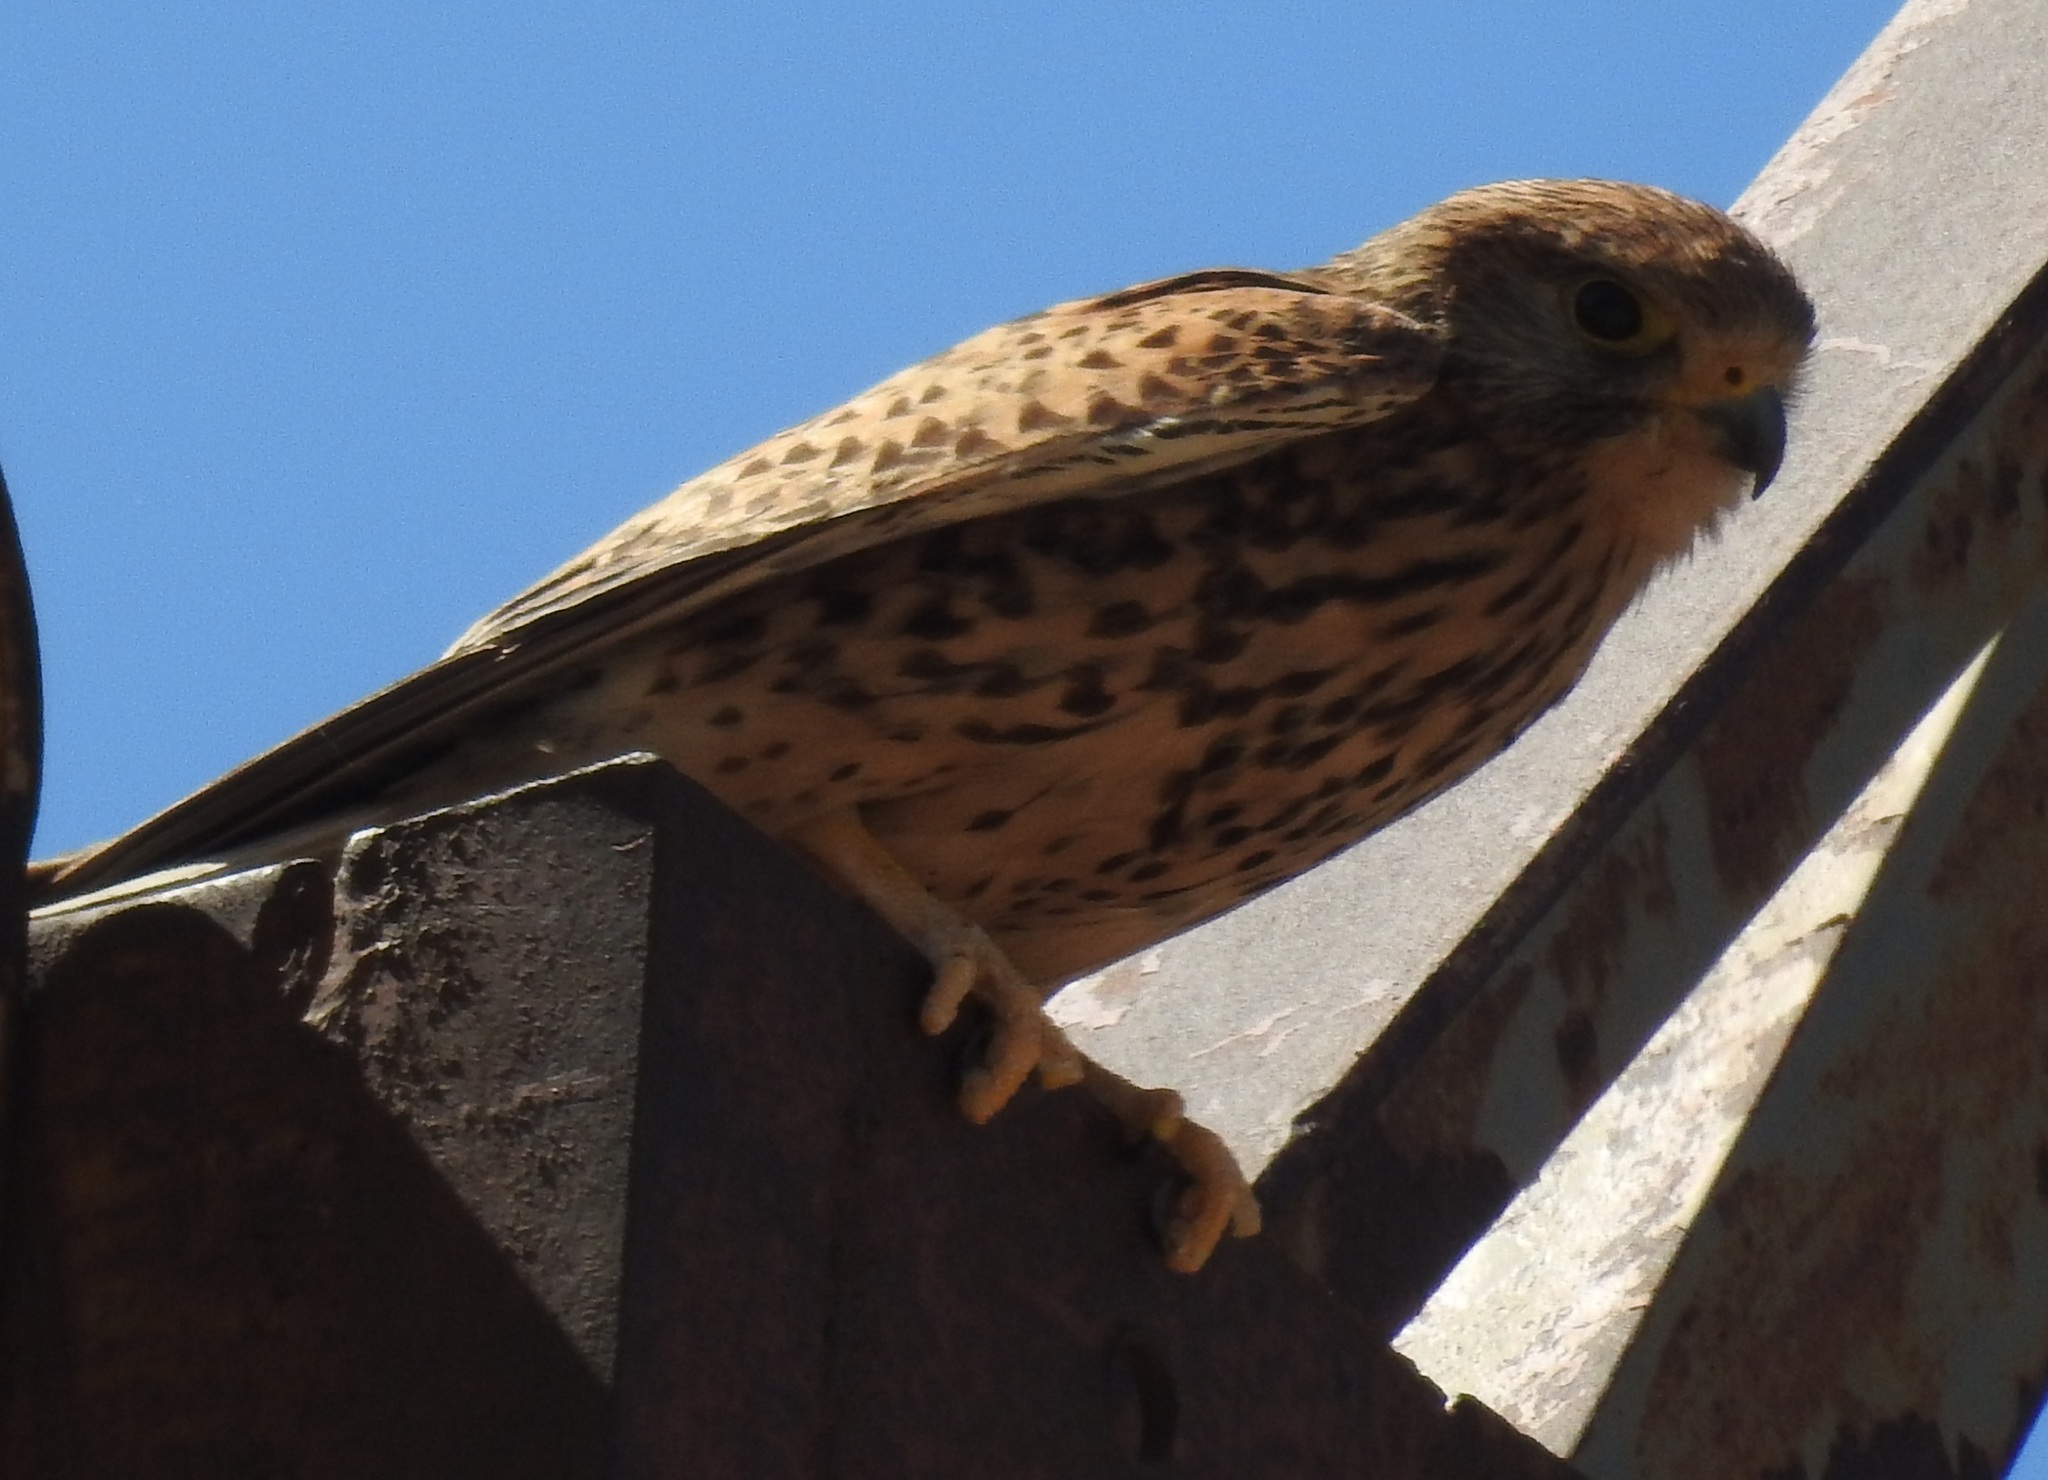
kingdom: Animalia
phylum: Chordata
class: Aves
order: Falconiformes
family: Falconidae
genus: Falco
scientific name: Falco tinnunculus
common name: Common kestrel
